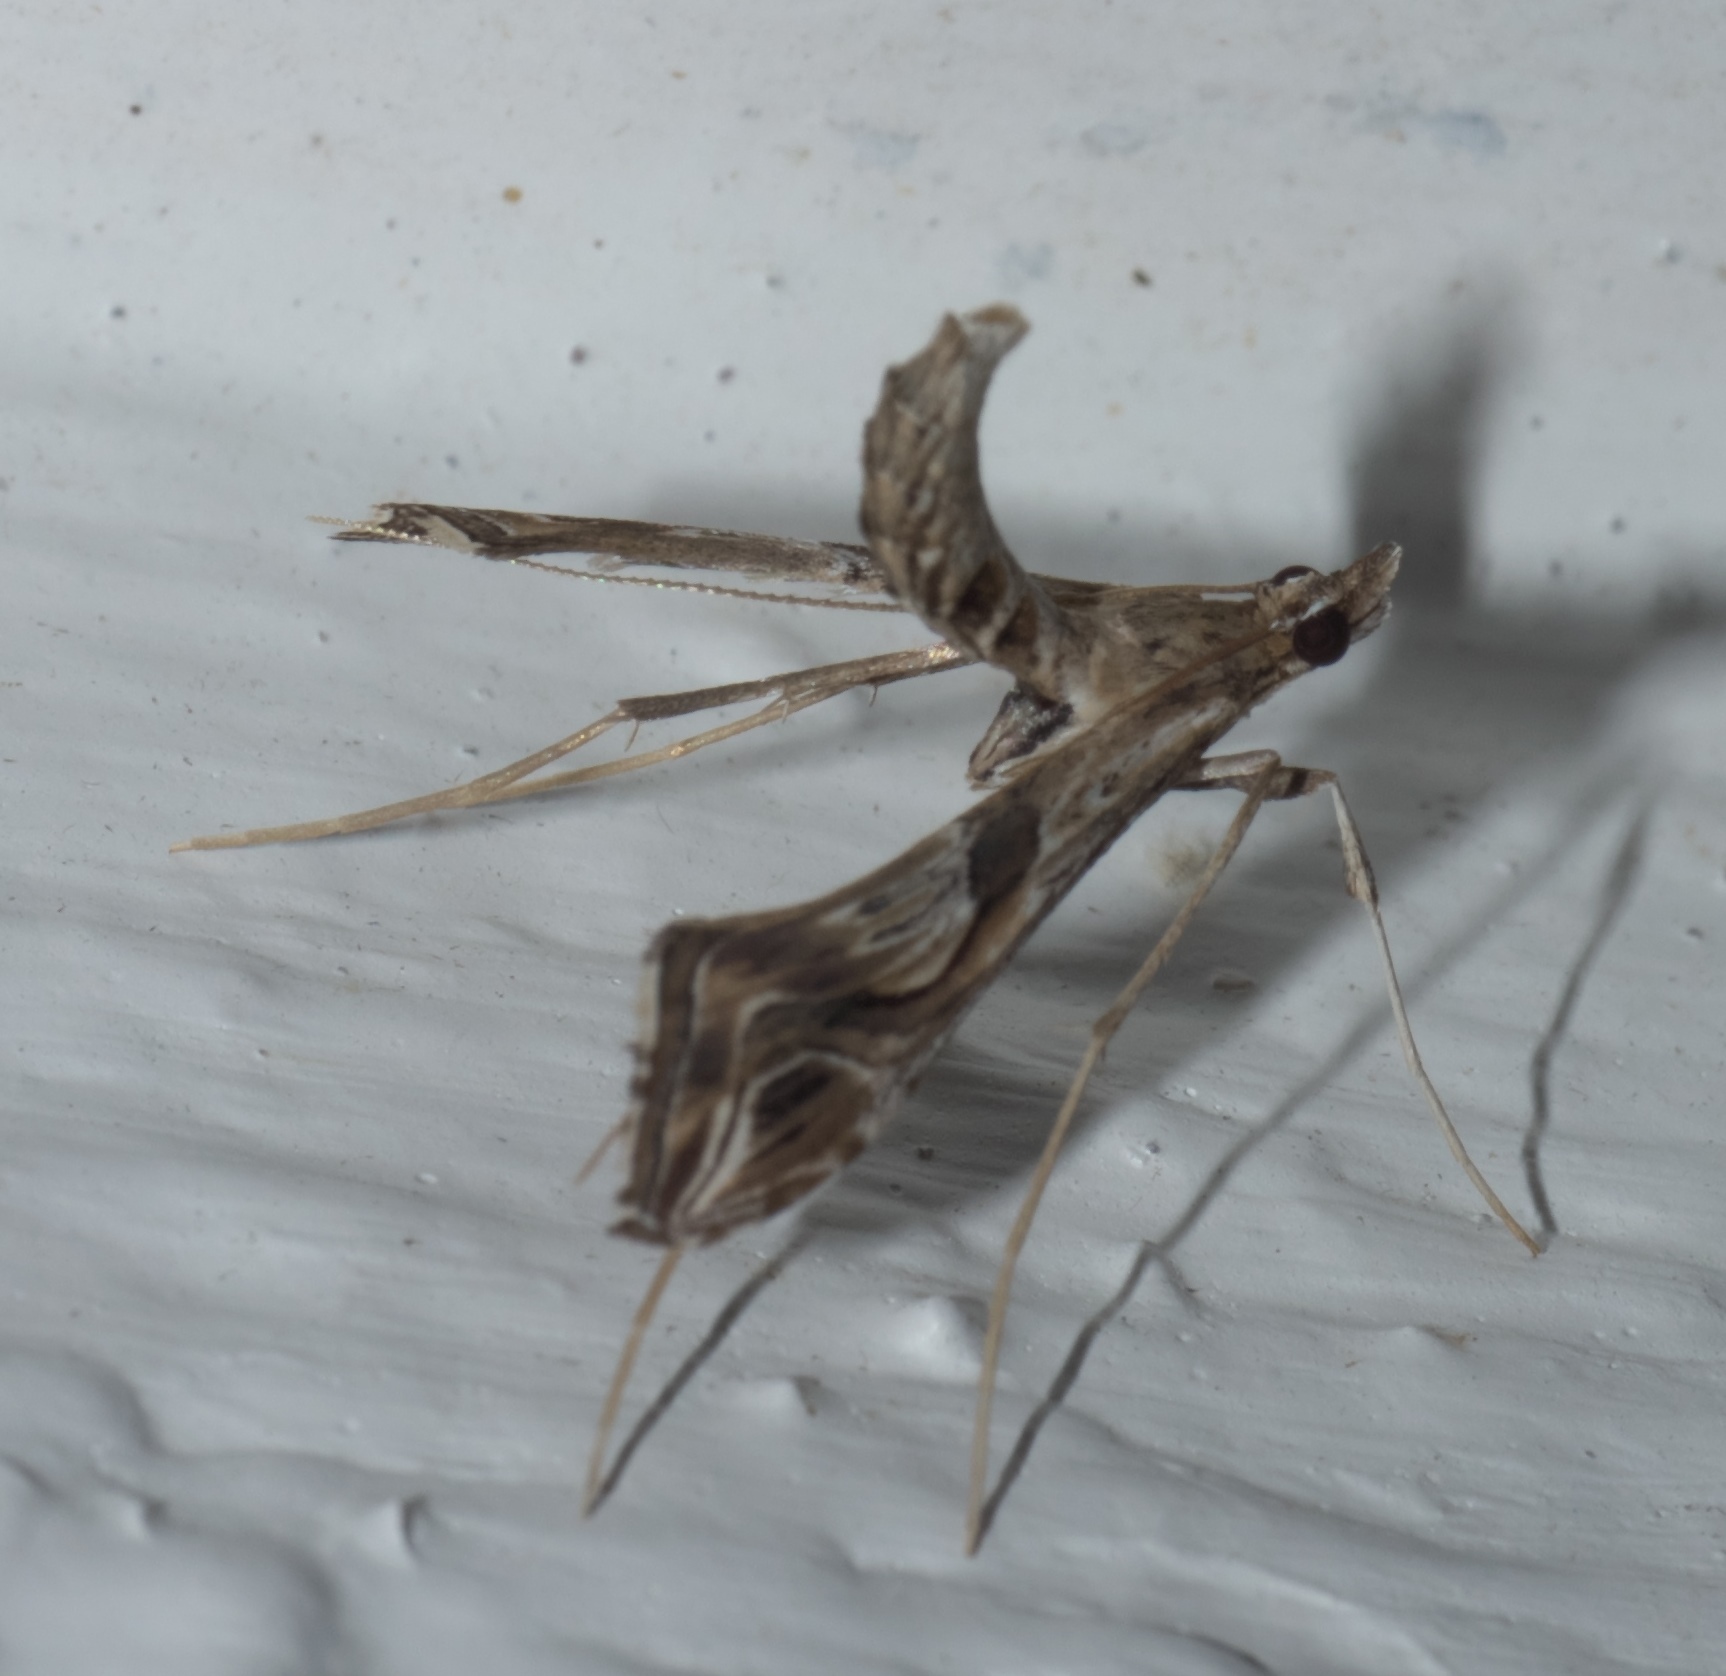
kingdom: Animalia
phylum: Arthropoda
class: Insecta
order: Lepidoptera
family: Crambidae
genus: Lineodes
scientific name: Lineodes integra
